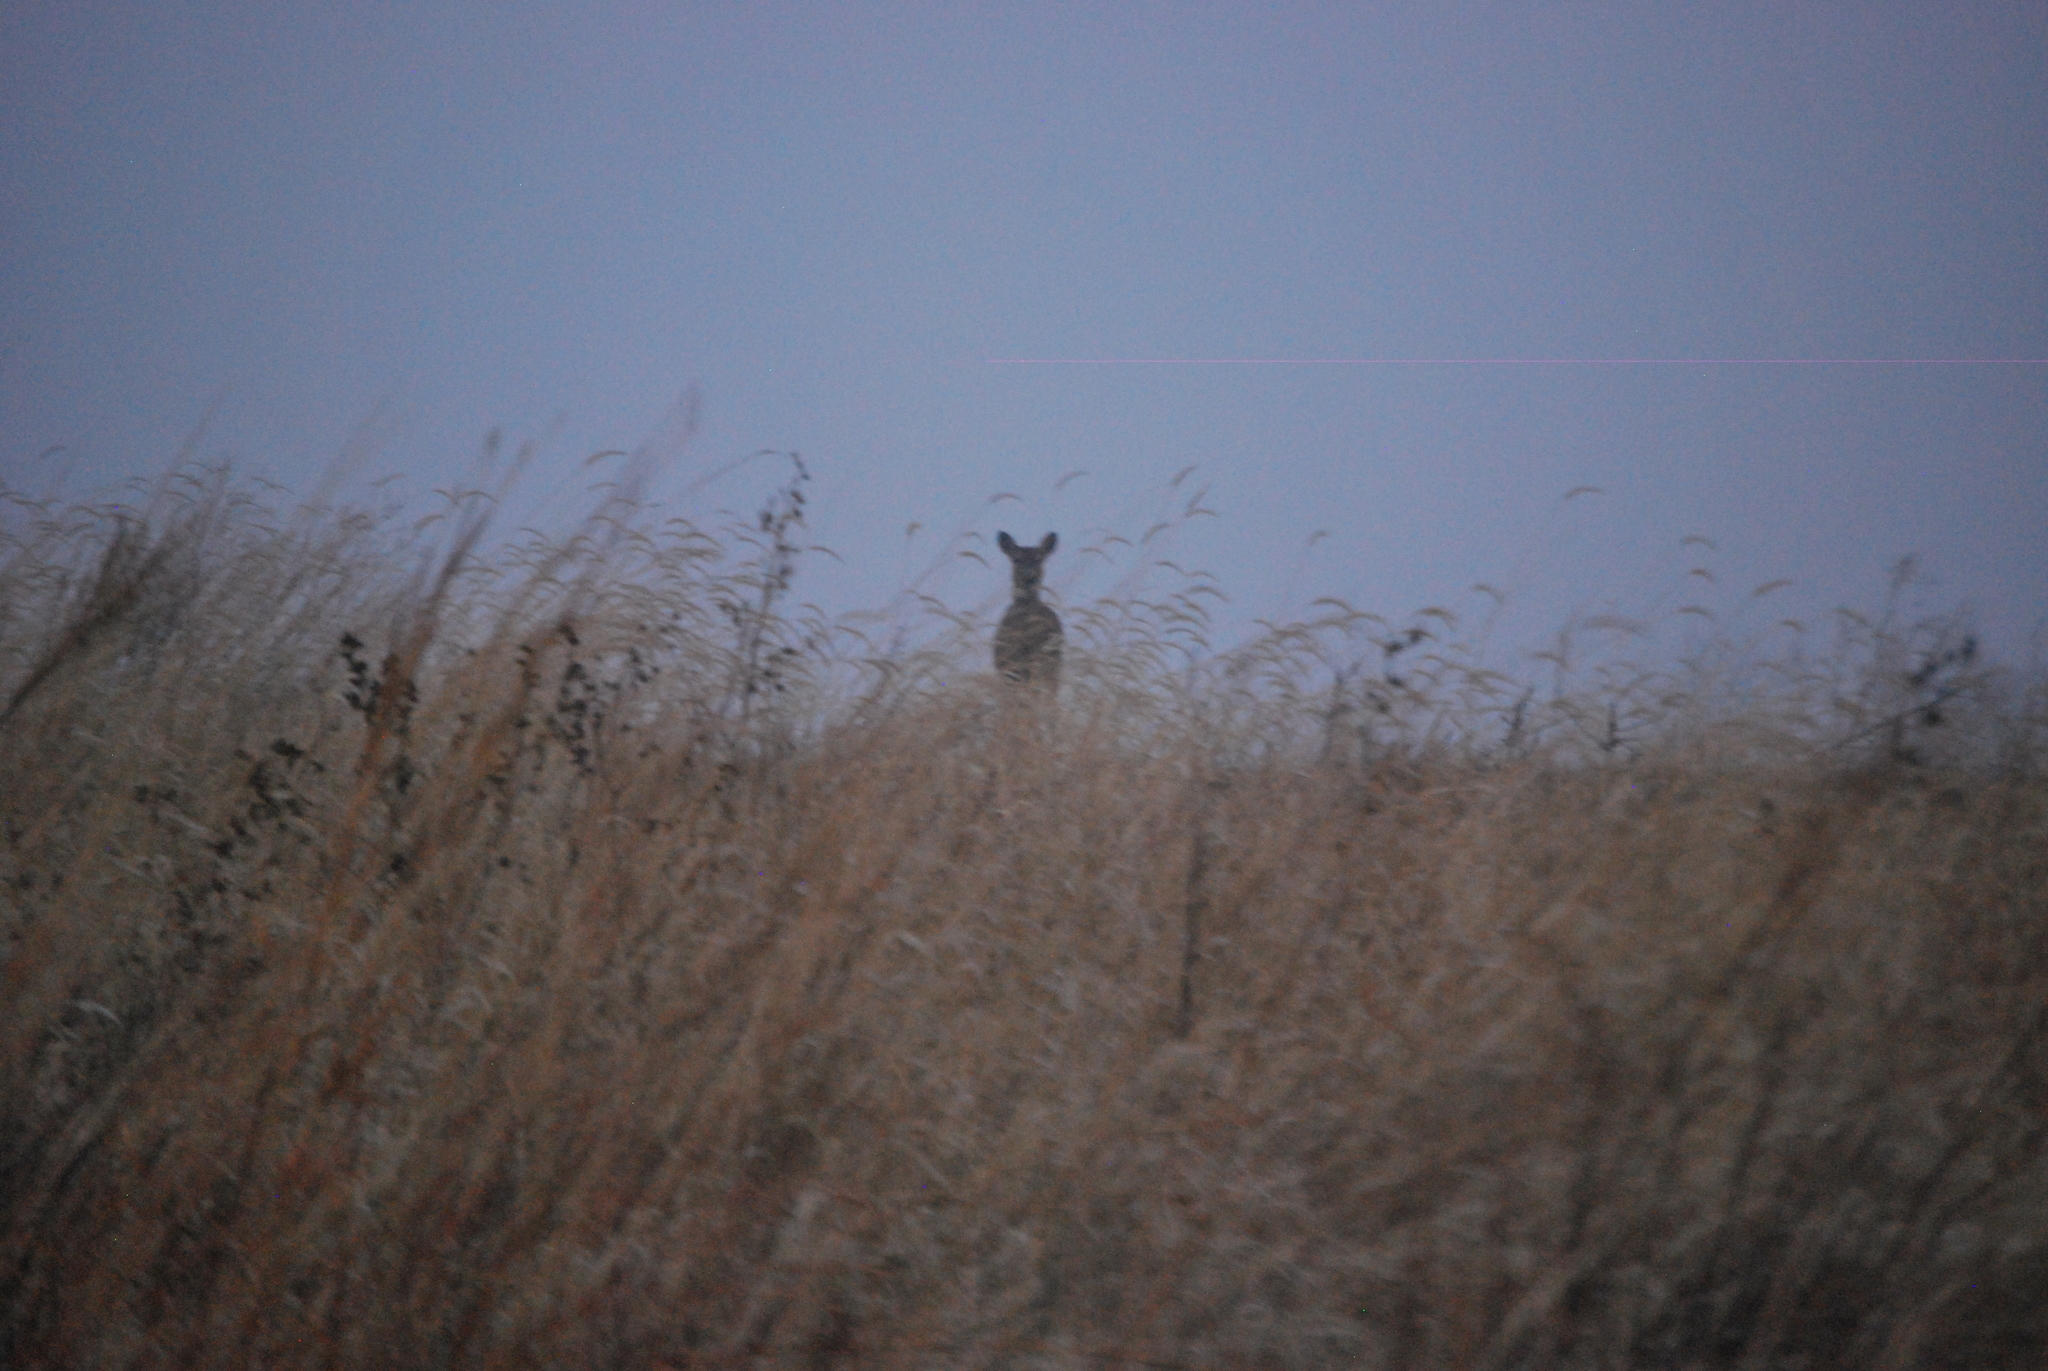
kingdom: Animalia
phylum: Chordata
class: Mammalia
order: Artiodactyla
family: Cervidae
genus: Odocoileus
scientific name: Odocoileus virginianus
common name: White-tailed deer
